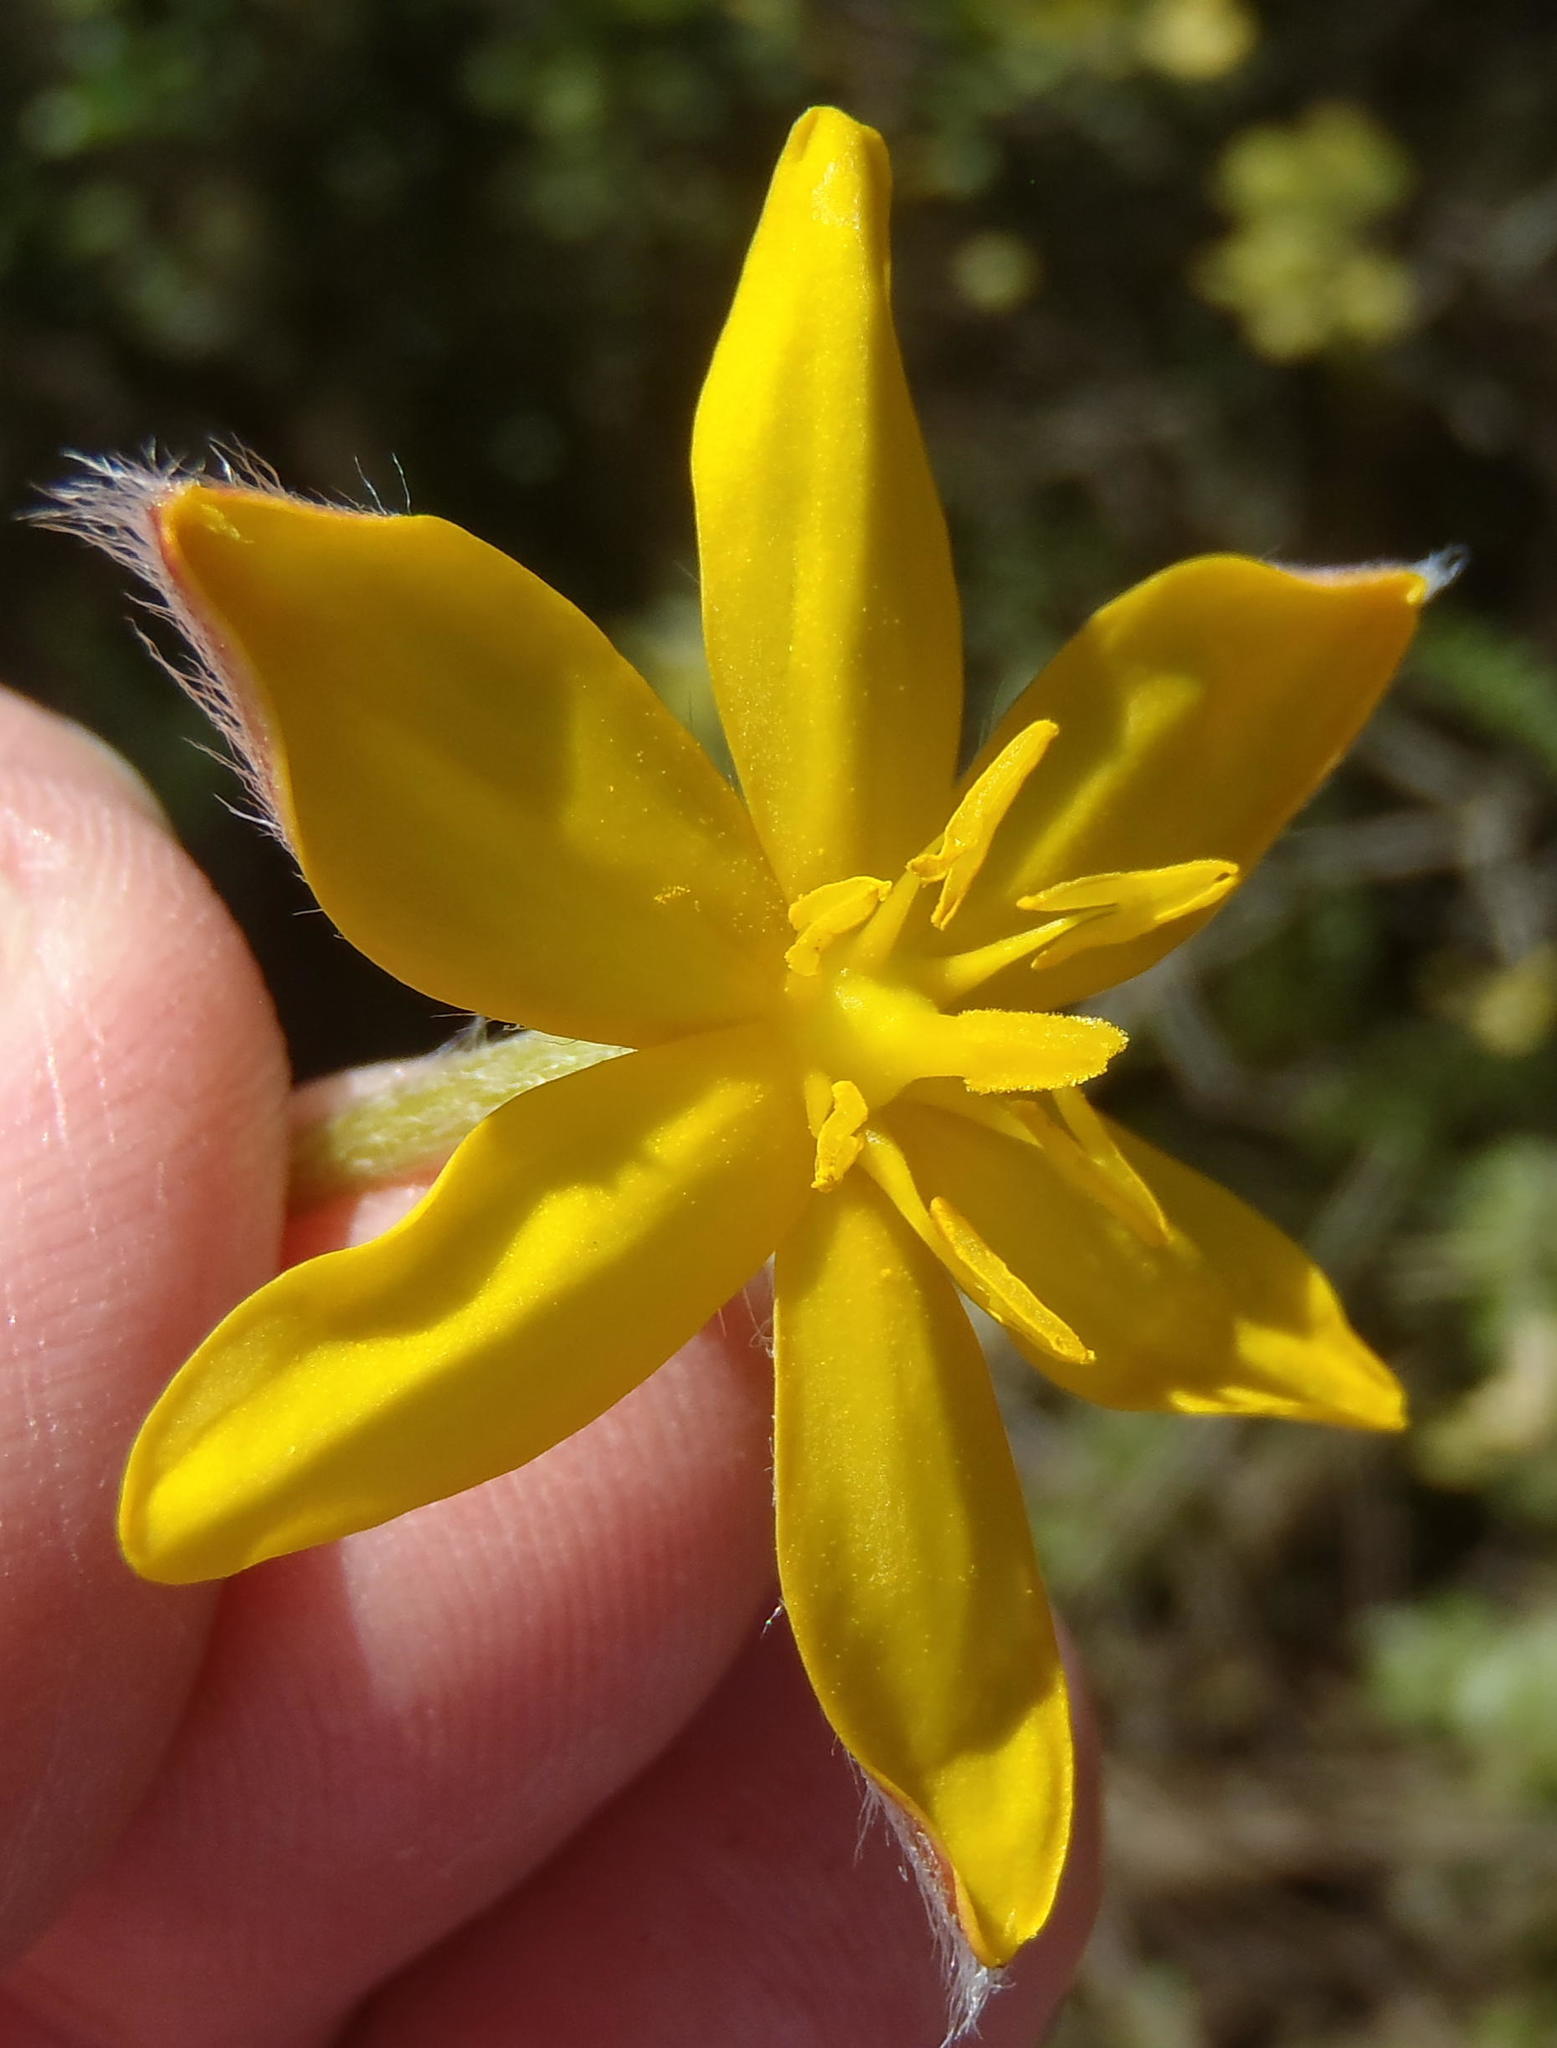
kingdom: Plantae
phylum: Tracheophyta
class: Liliopsida
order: Asparagales
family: Hypoxidaceae
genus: Hypoxis
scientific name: Hypoxis villosa
